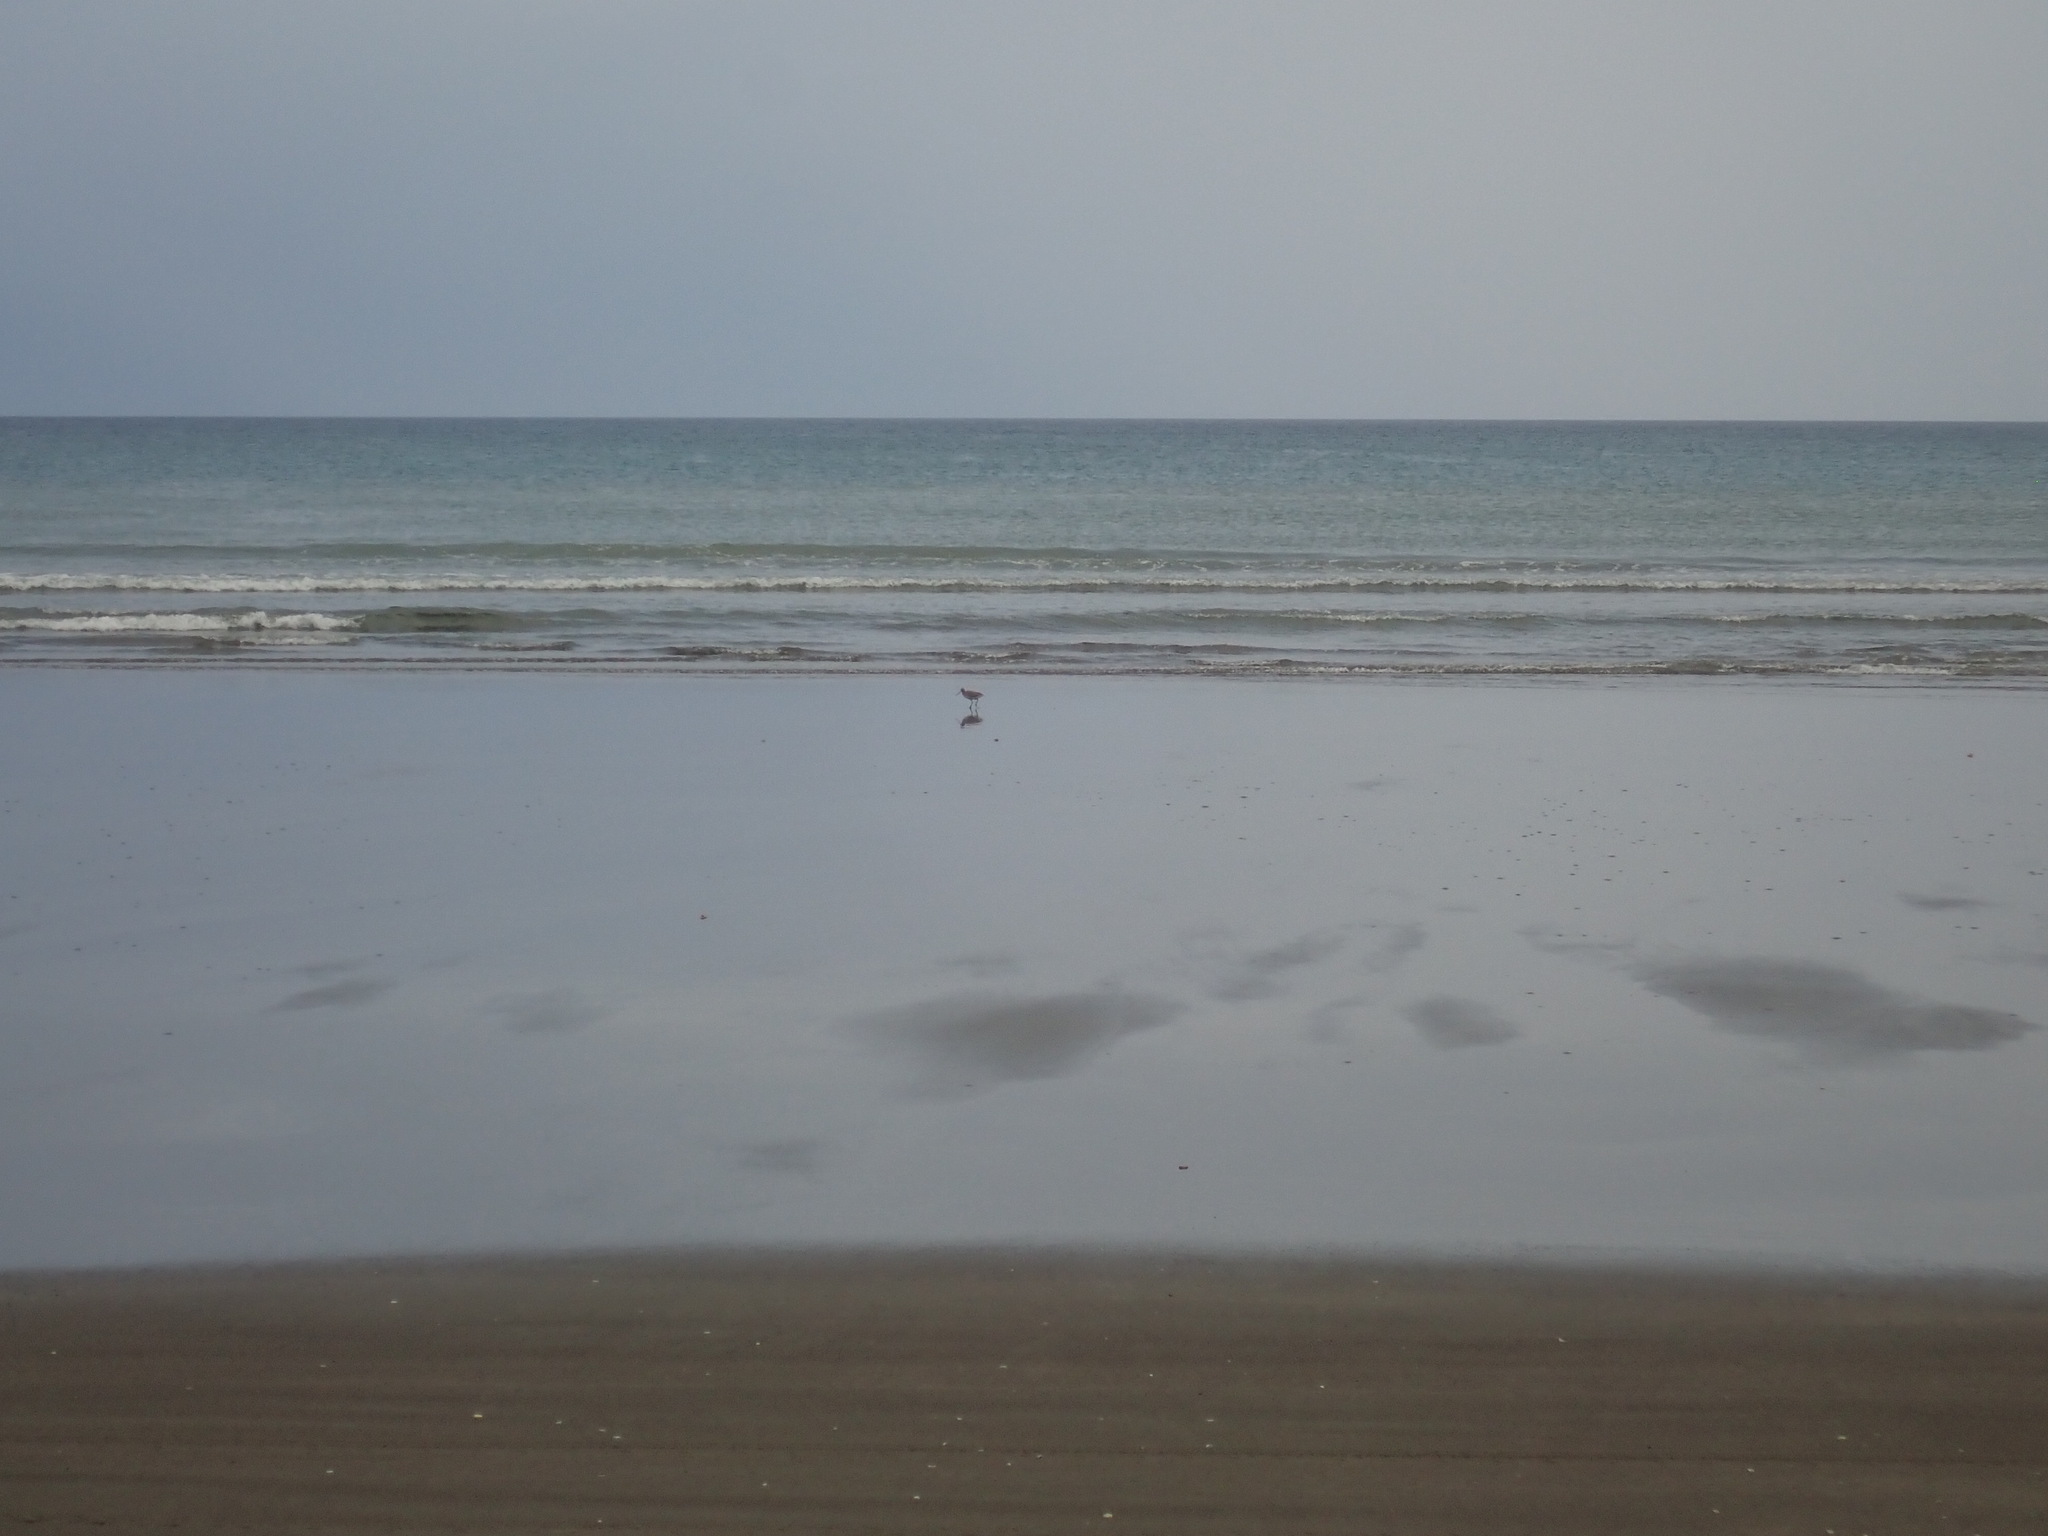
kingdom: Animalia
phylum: Chordata
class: Aves
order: Charadriiformes
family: Scolopacidae
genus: Limosa
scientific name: Limosa lapponica
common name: Bar-tailed godwit
